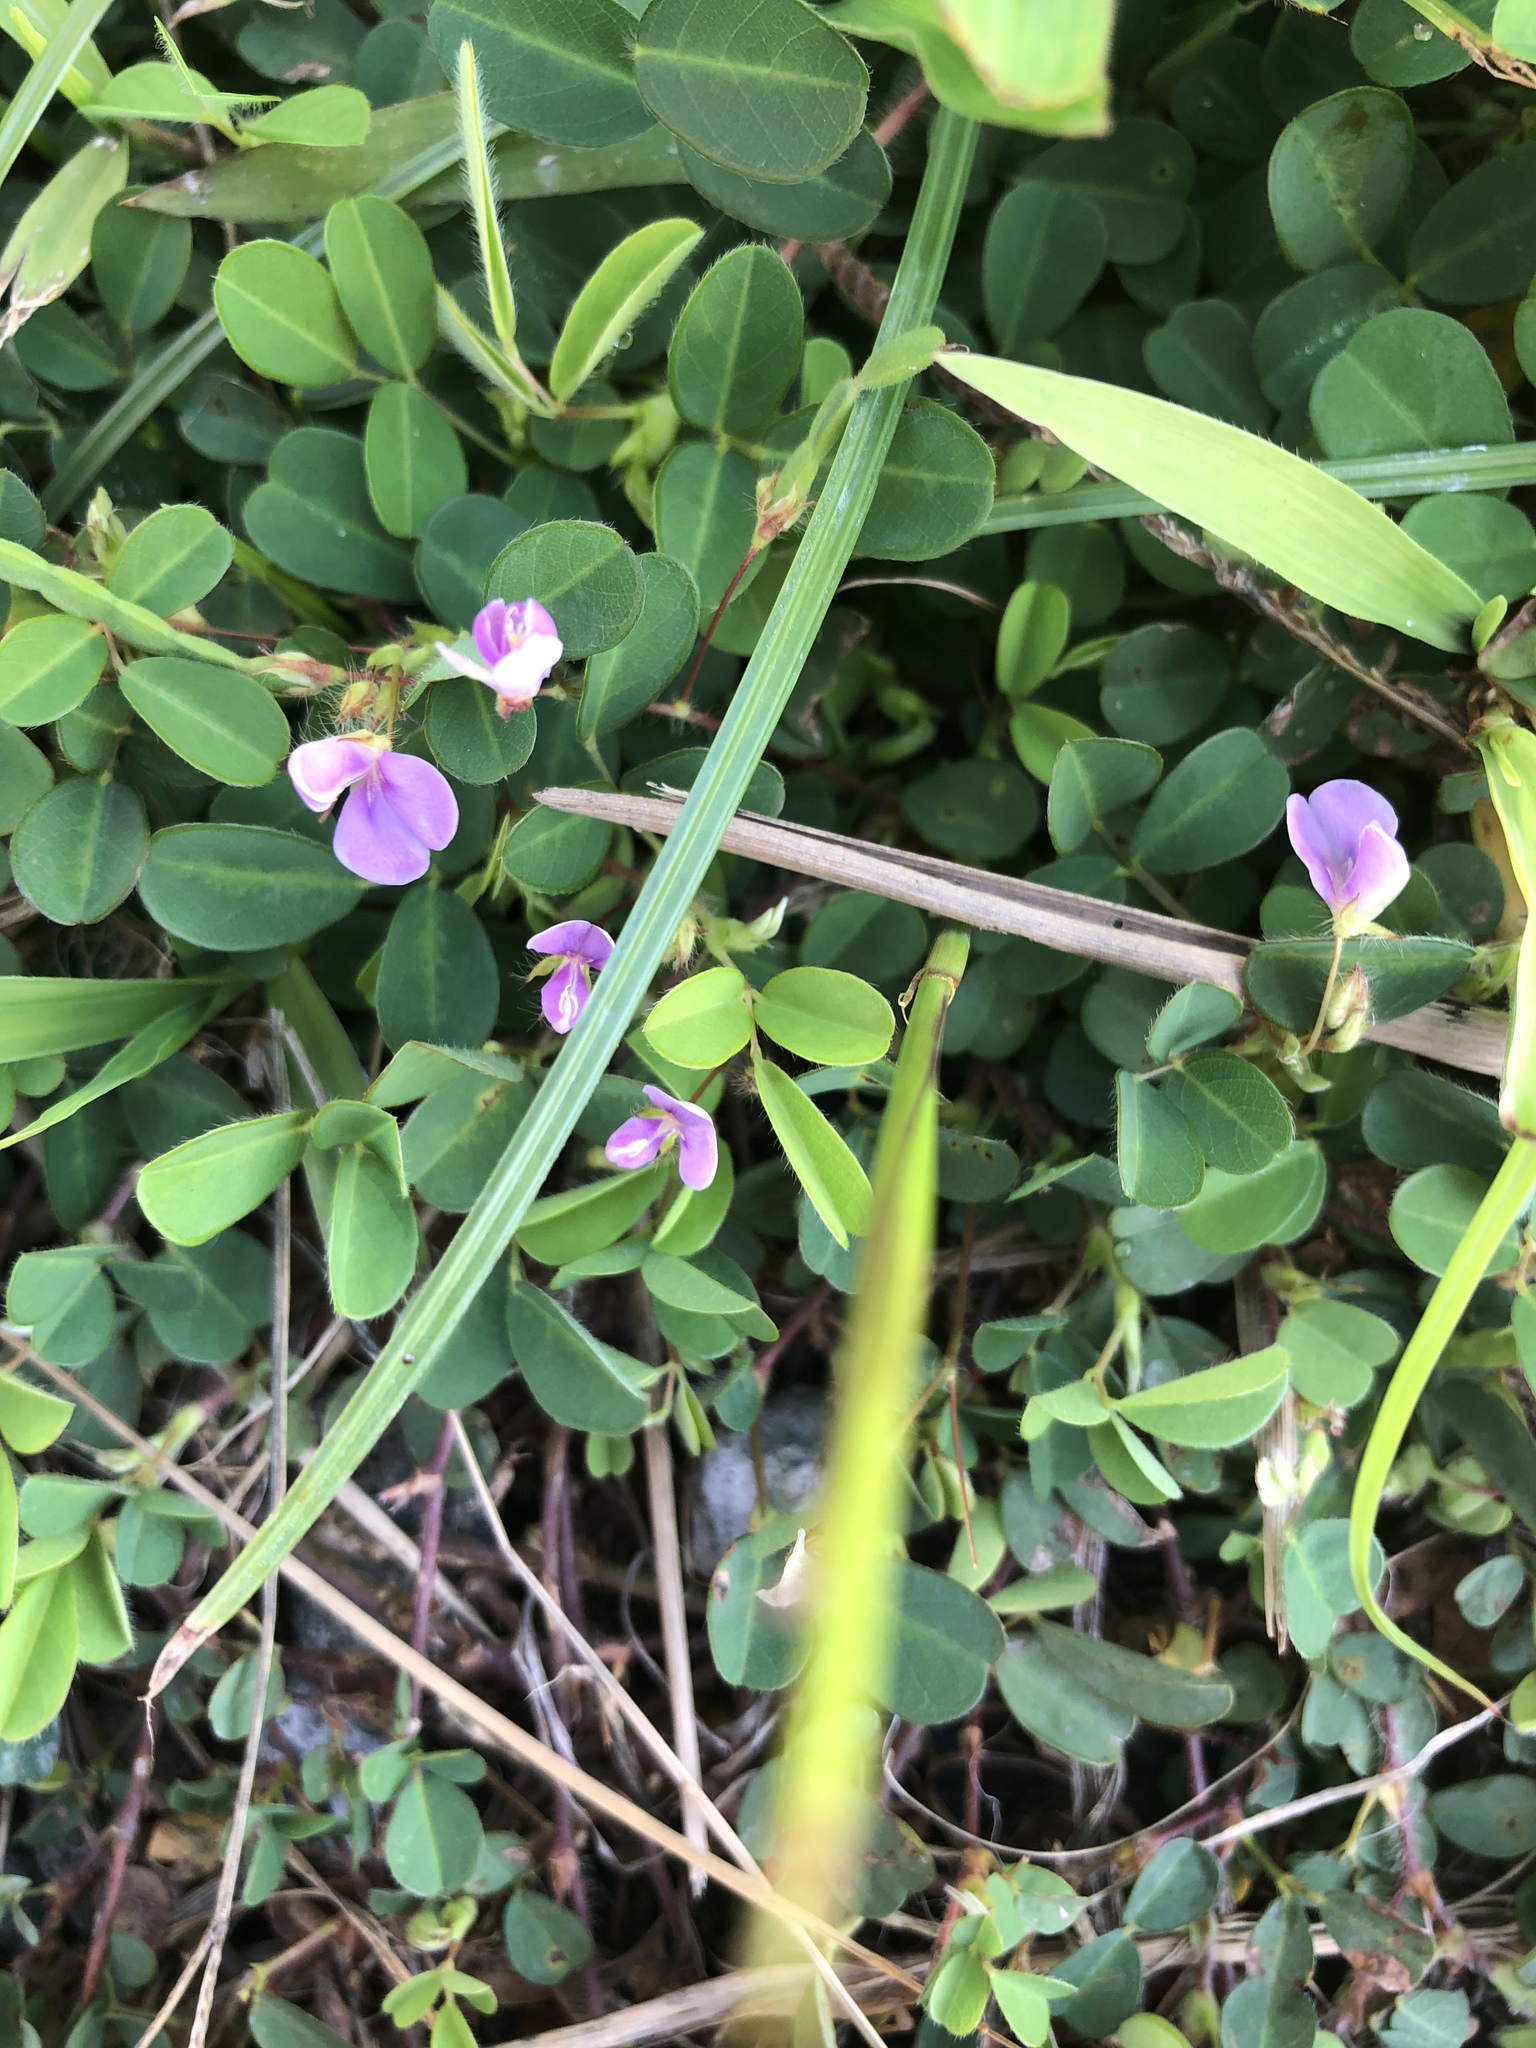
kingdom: Plantae
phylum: Tracheophyta
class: Magnoliopsida
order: Fabales
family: Fabaceae
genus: Grona
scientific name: Grona triflora
